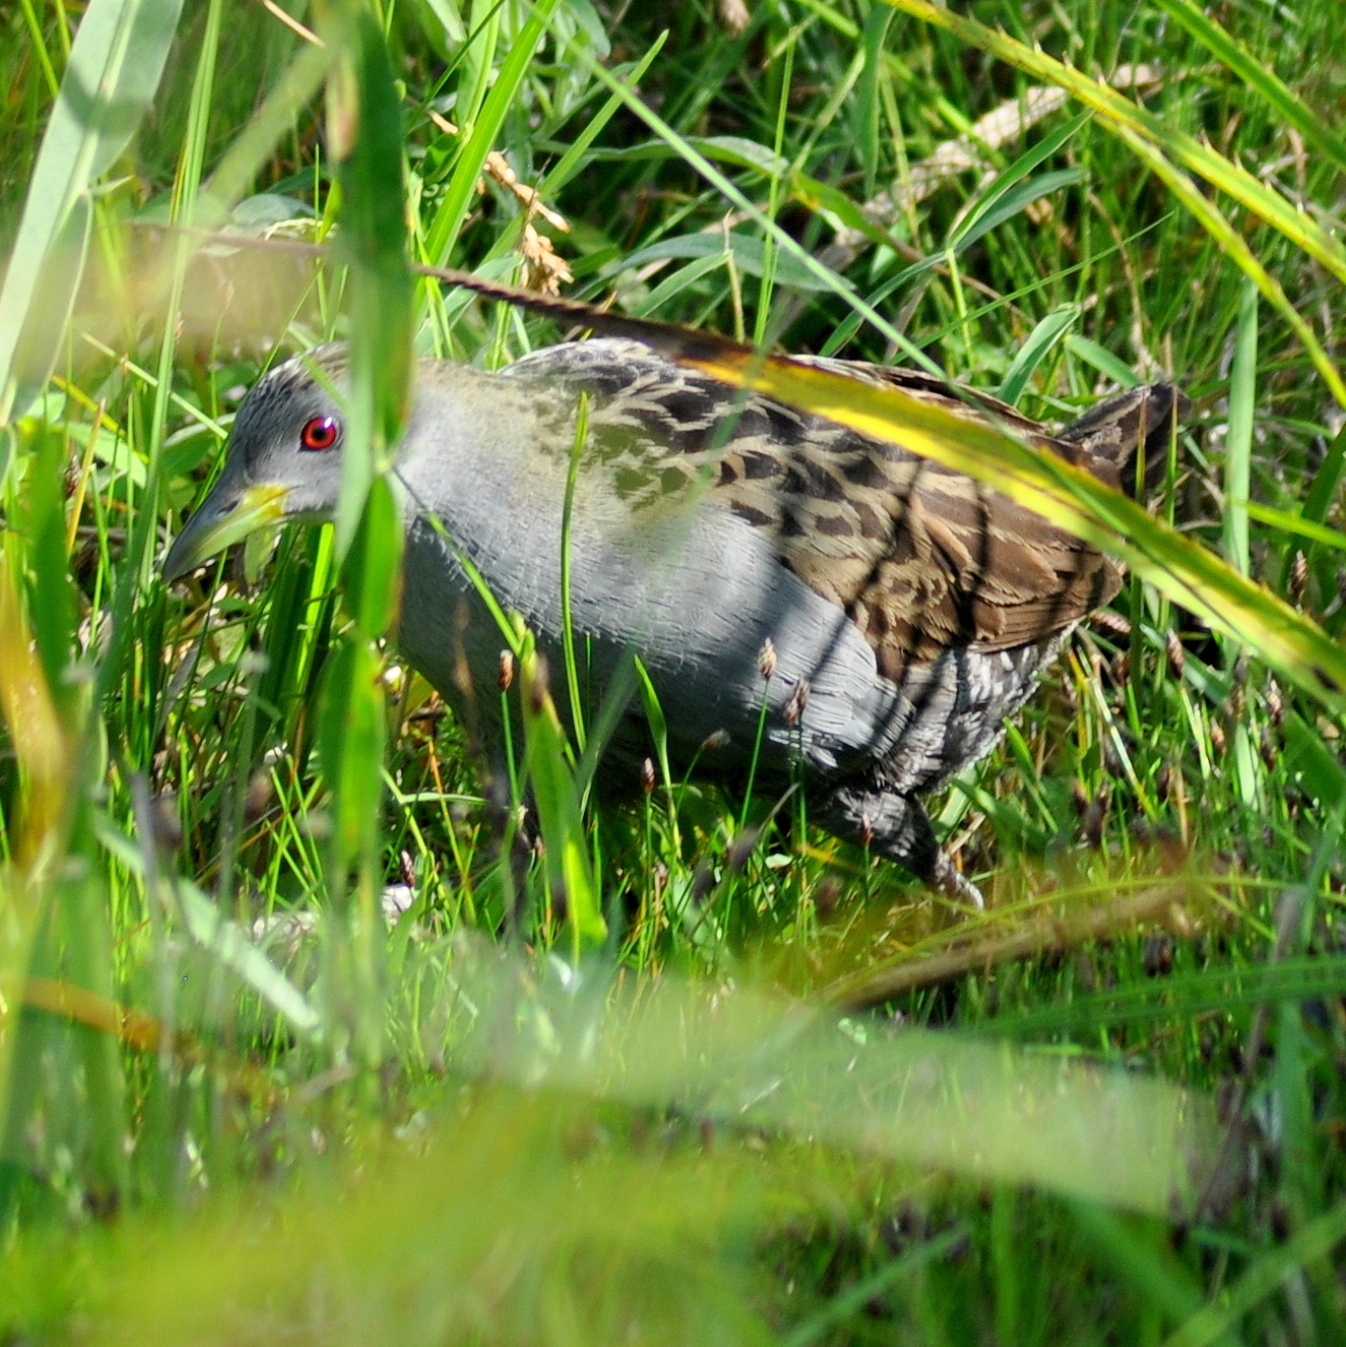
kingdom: Animalia
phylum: Chordata
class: Aves
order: Gruiformes
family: Rallidae
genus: Porzana
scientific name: Porzana albicollis
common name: Ash-throated crake
